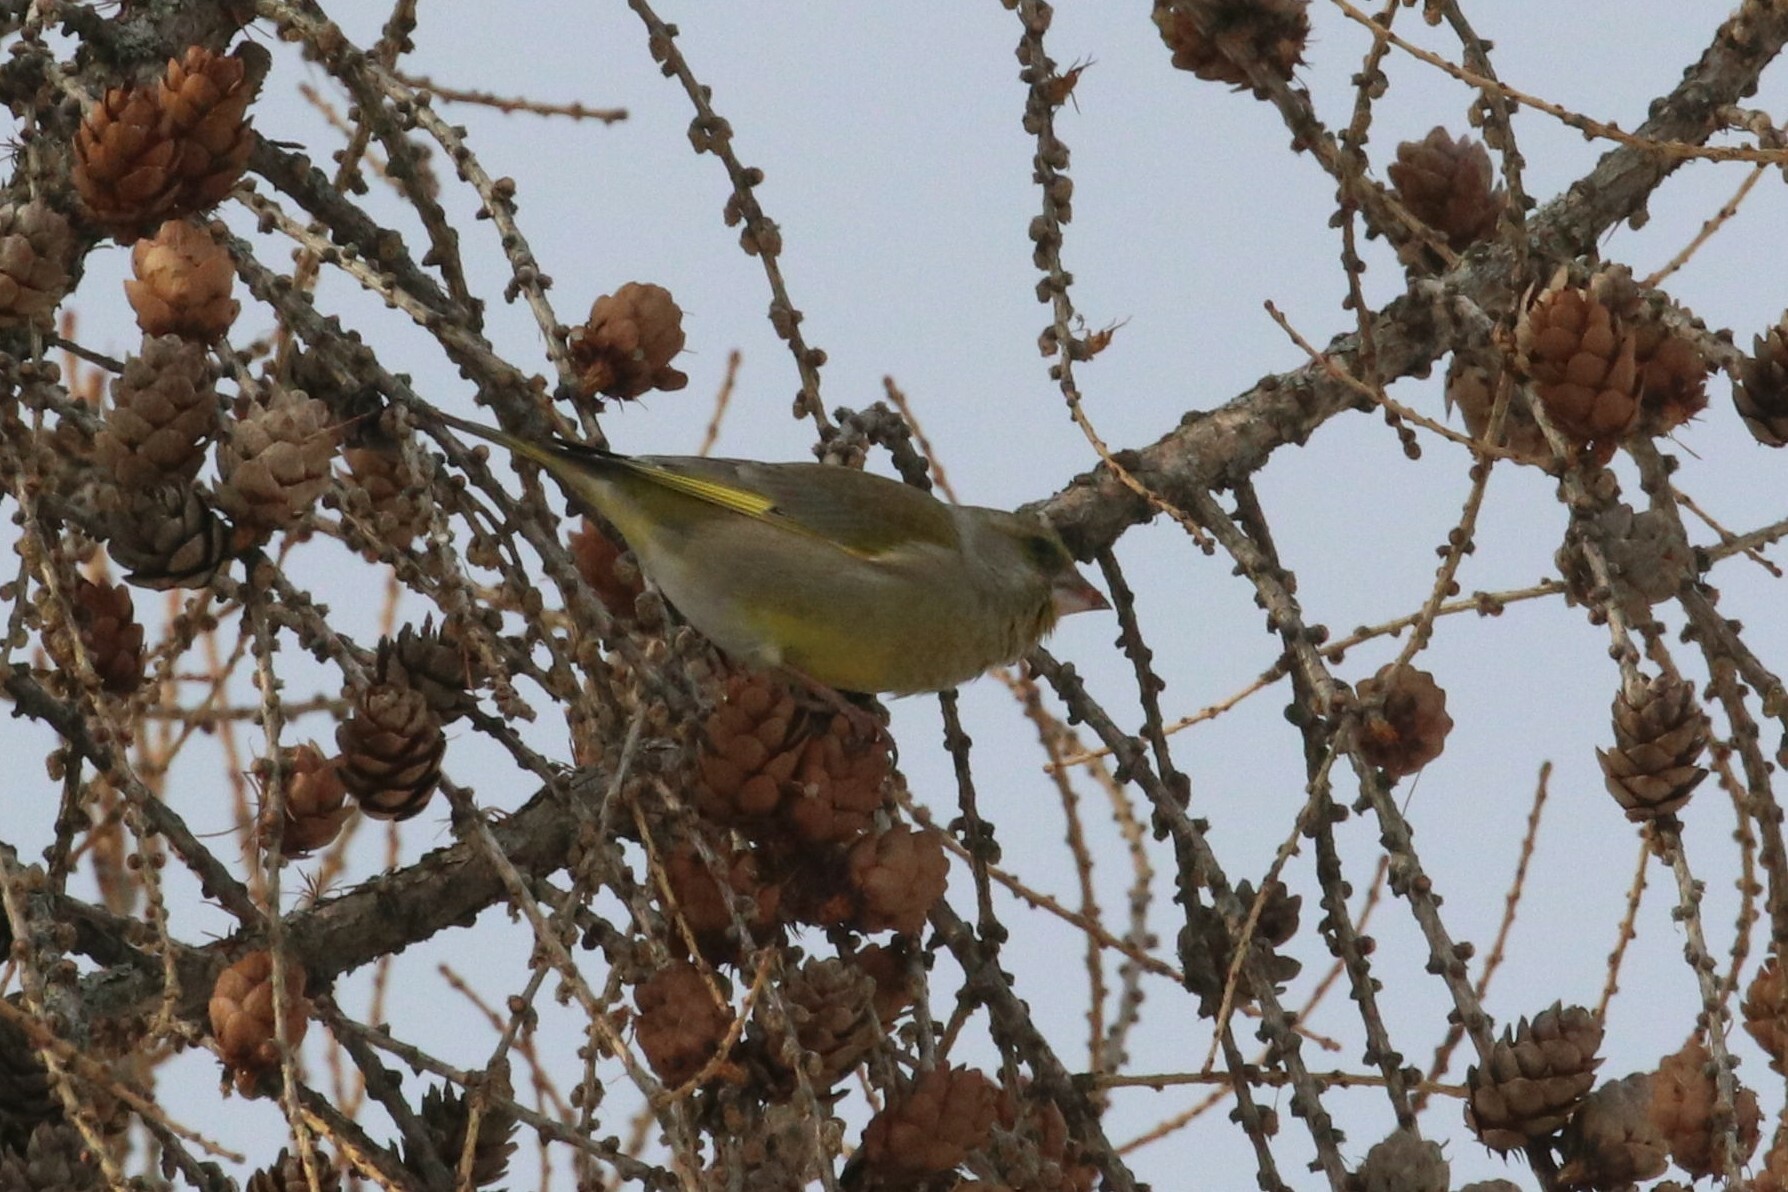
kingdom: Plantae
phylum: Tracheophyta
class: Liliopsida
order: Poales
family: Poaceae
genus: Chloris
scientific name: Chloris chloris
